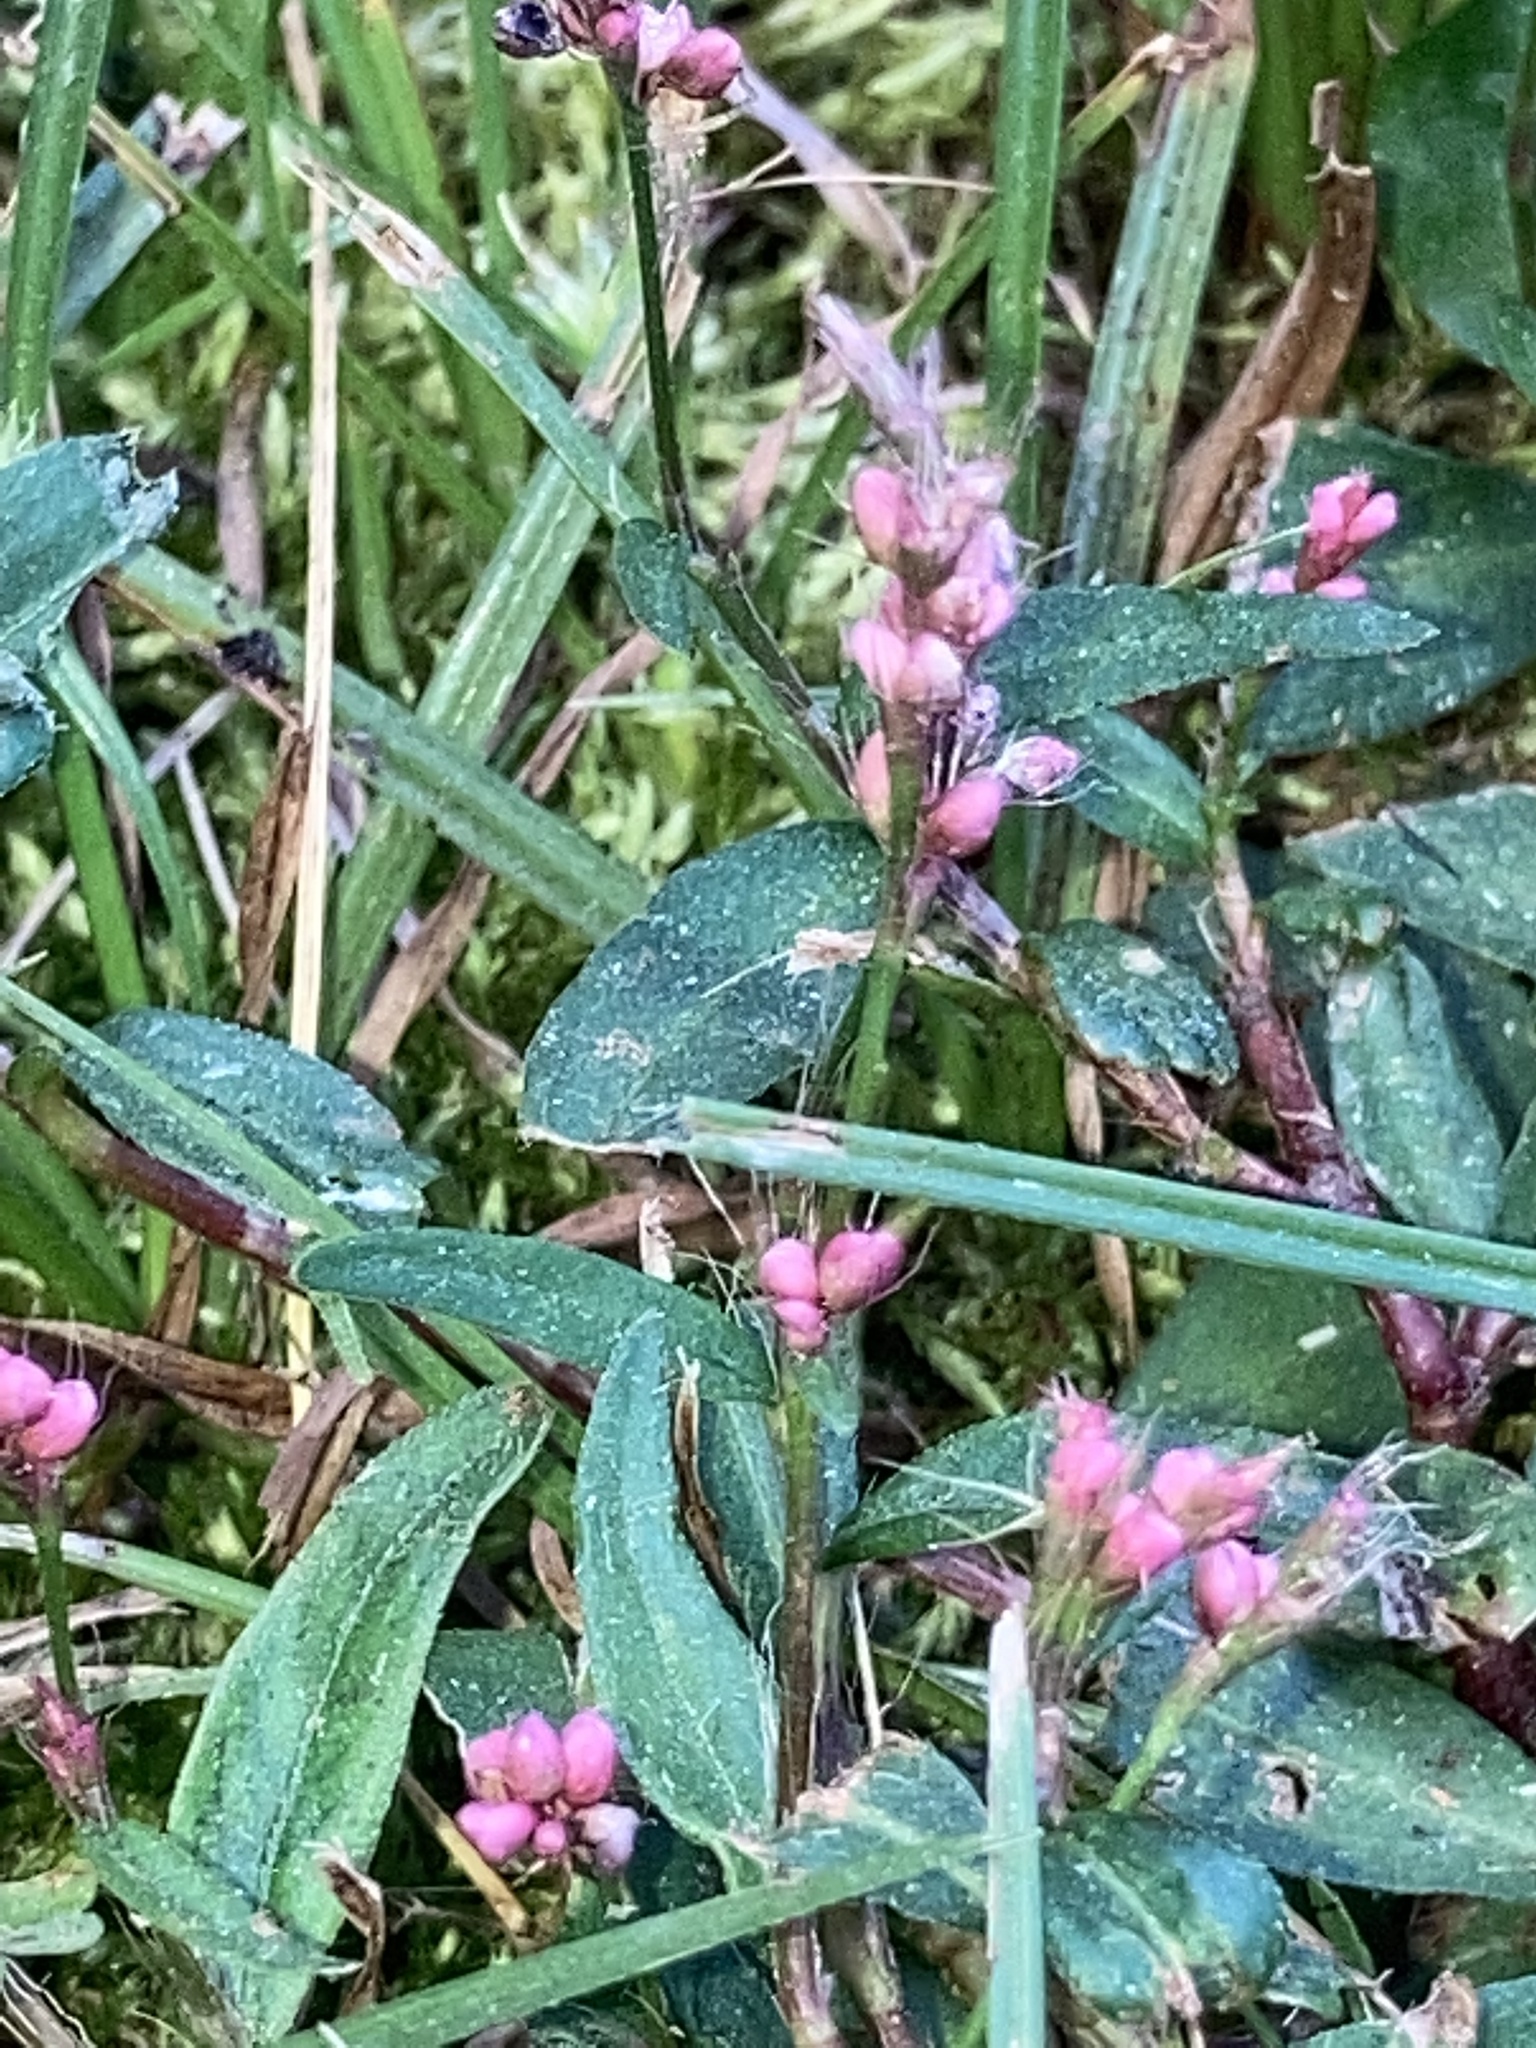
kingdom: Plantae
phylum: Tracheophyta
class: Magnoliopsida
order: Caryophyllales
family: Polygonaceae
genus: Persicaria
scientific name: Persicaria longiseta
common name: Bristly lady's-thumb
